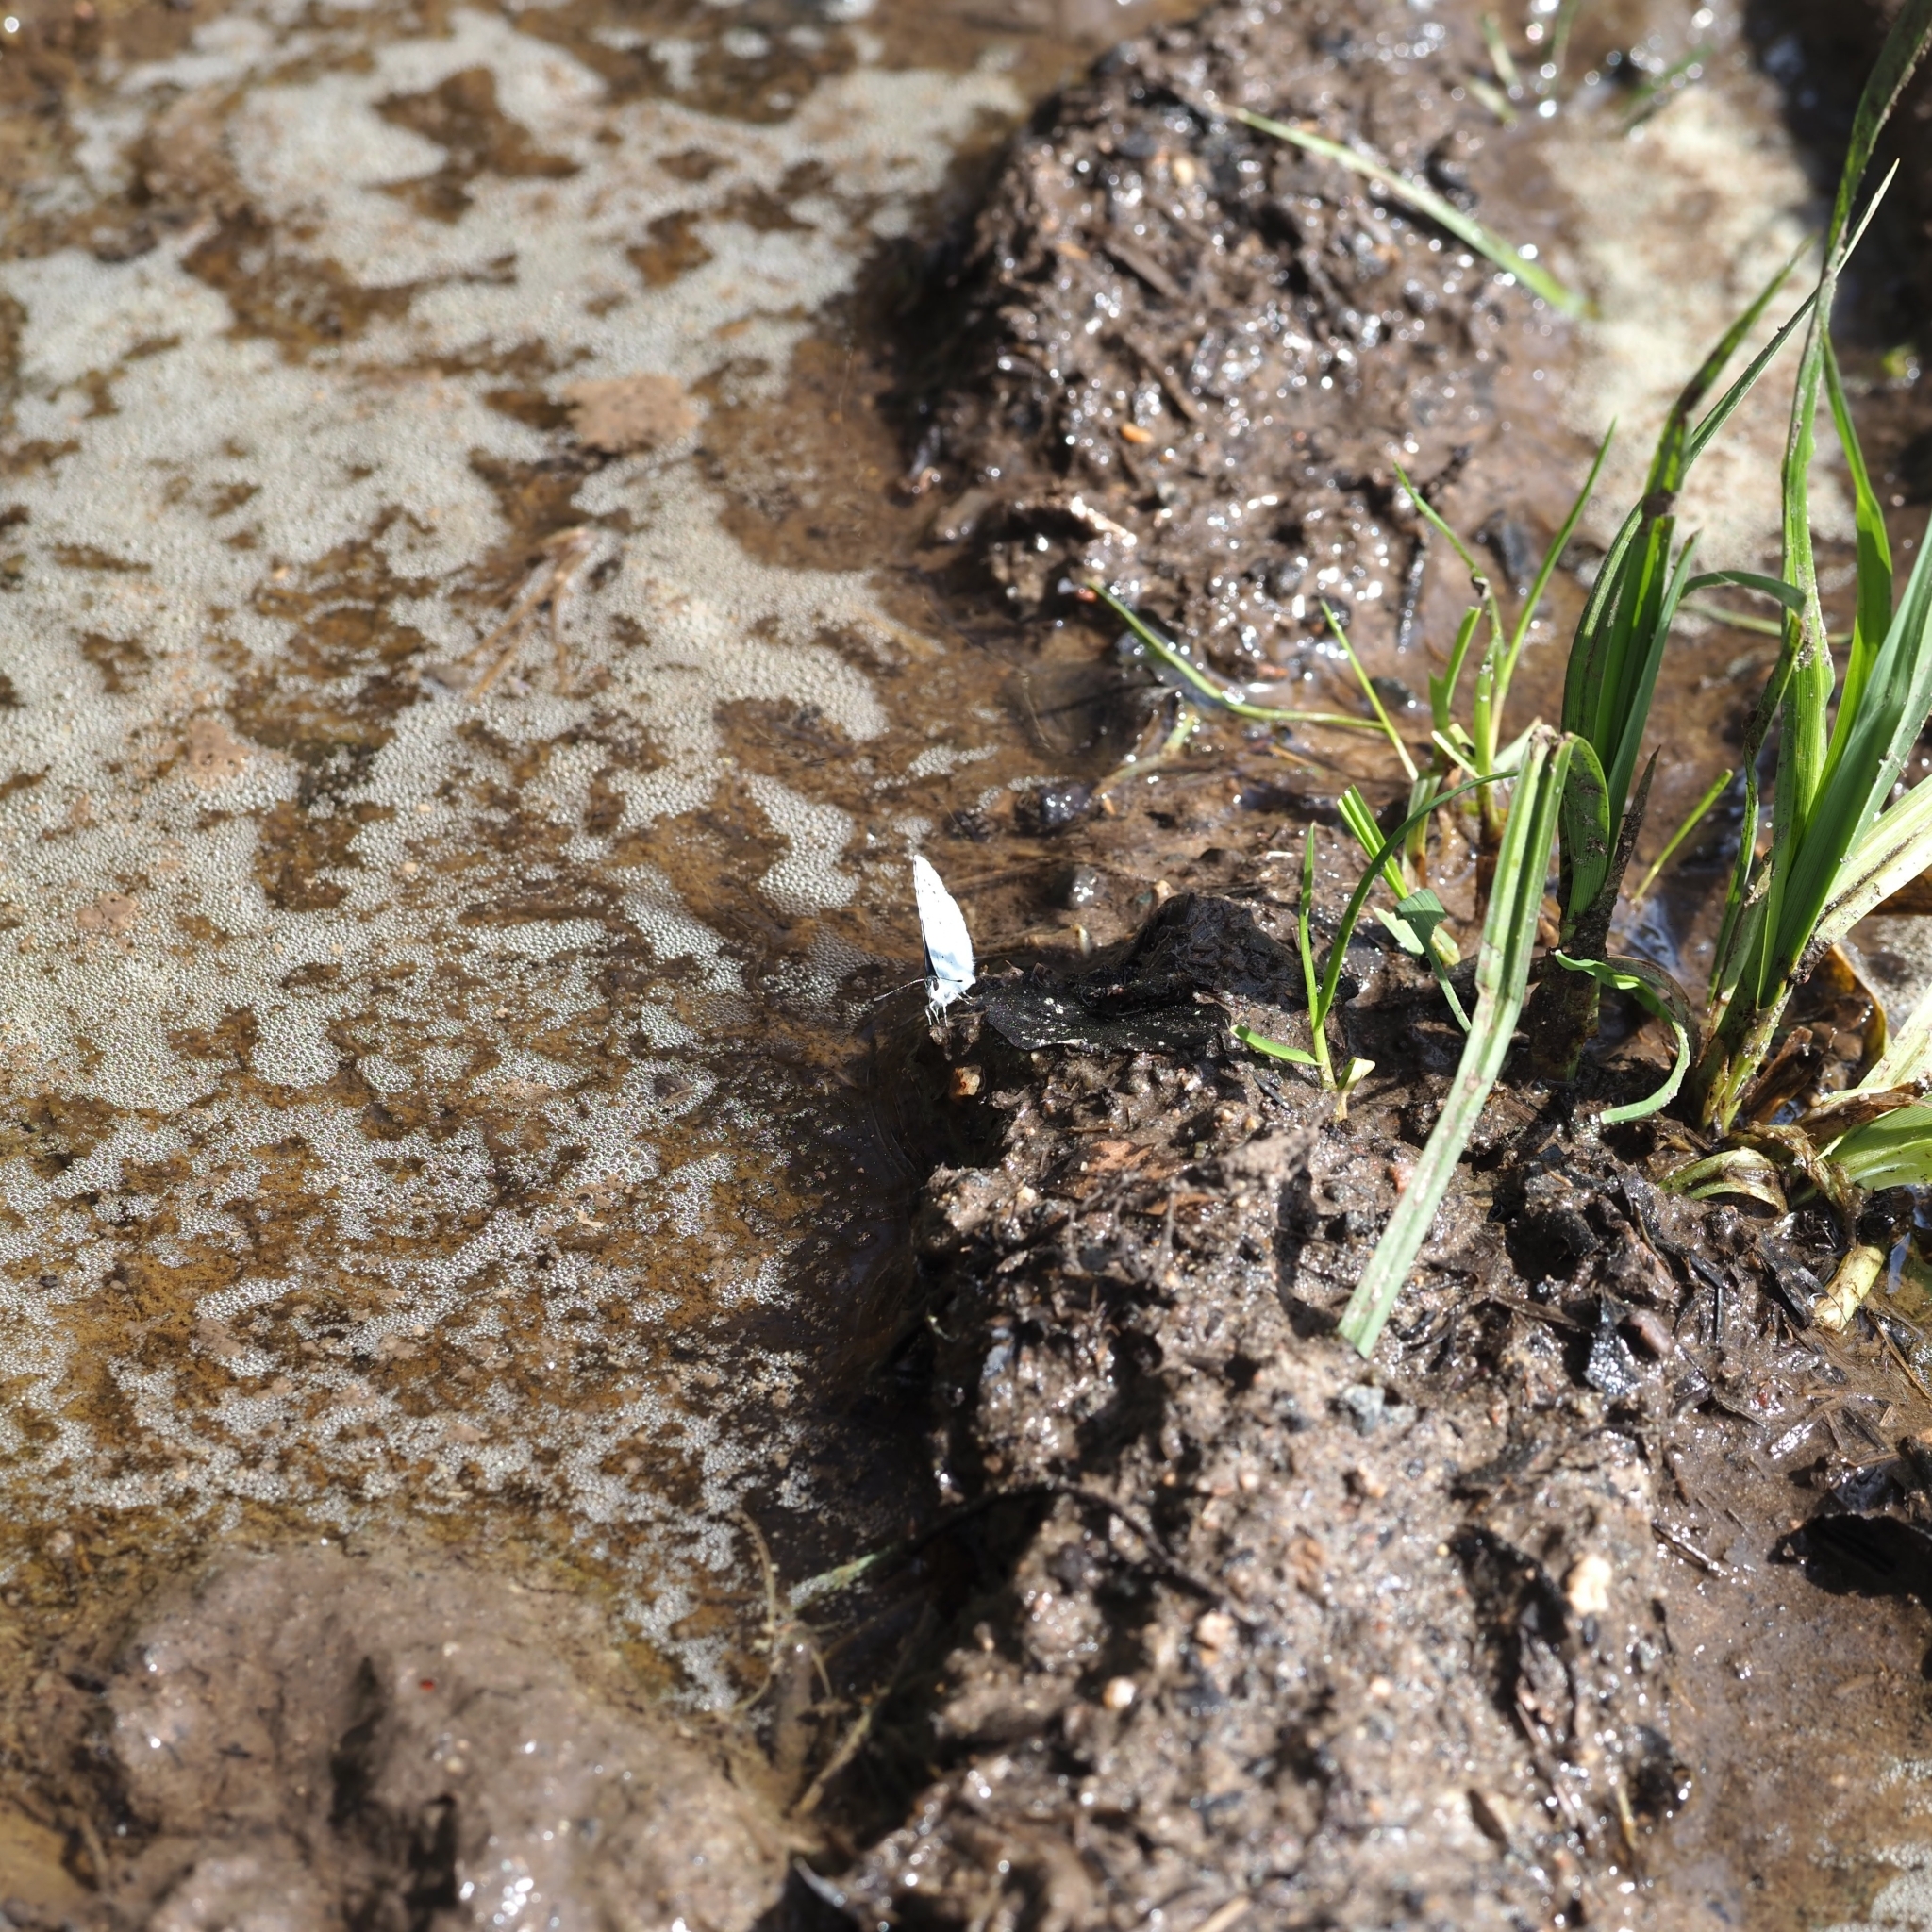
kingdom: Animalia
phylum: Arthropoda
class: Insecta
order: Lepidoptera
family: Lycaenidae
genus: Celastrina
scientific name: Celastrina argiolus
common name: Holly blue
